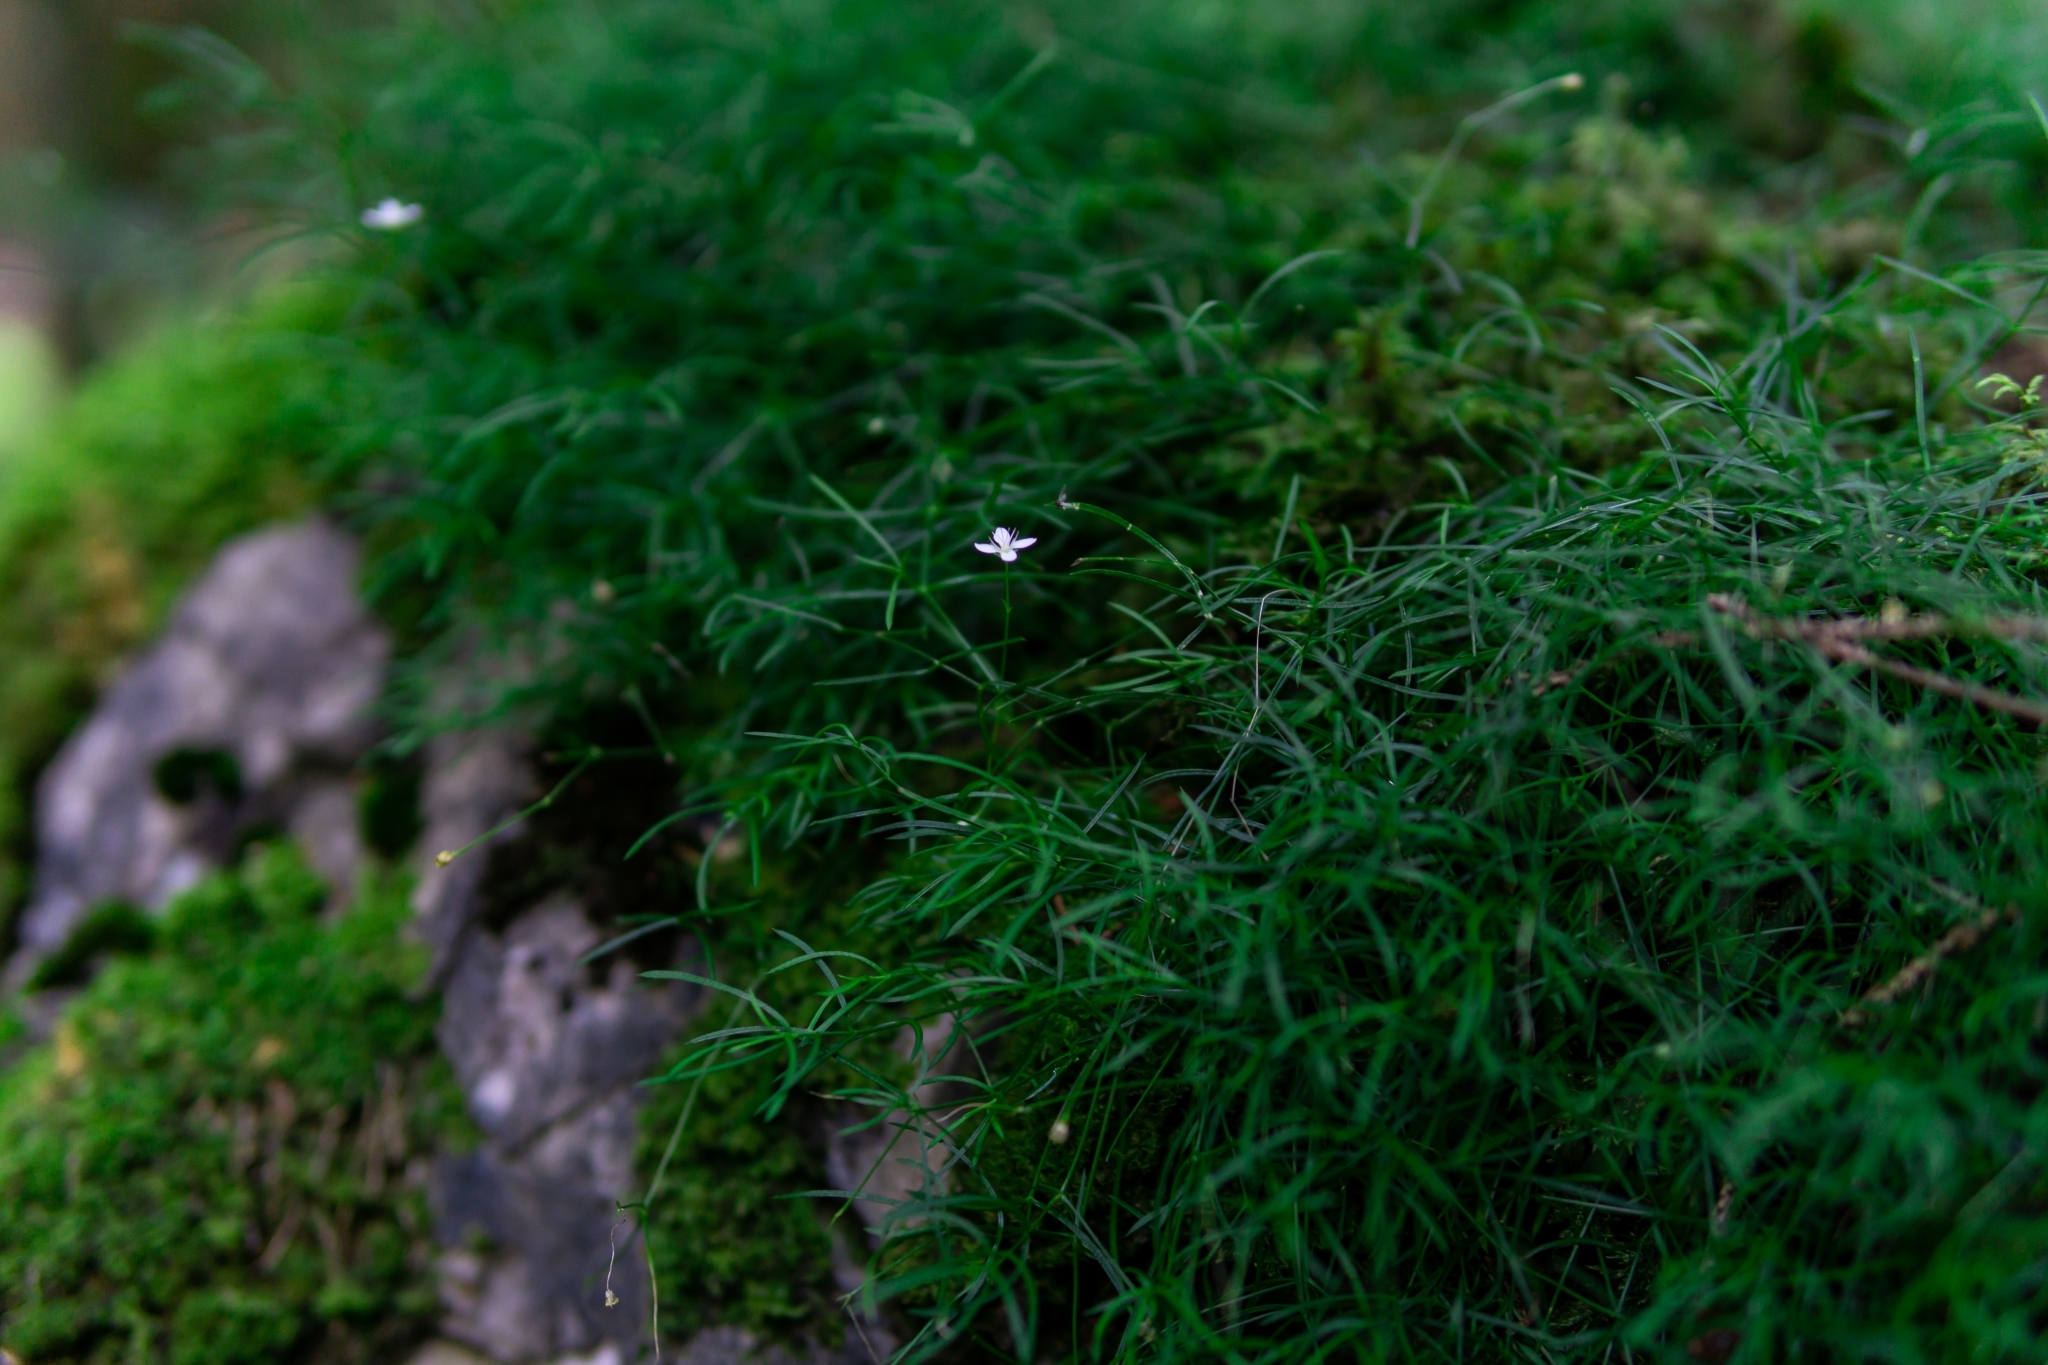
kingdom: Plantae
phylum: Tracheophyta
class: Magnoliopsida
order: Caryophyllales
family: Caryophyllaceae
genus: Moehringia
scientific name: Moehringia muscosa
